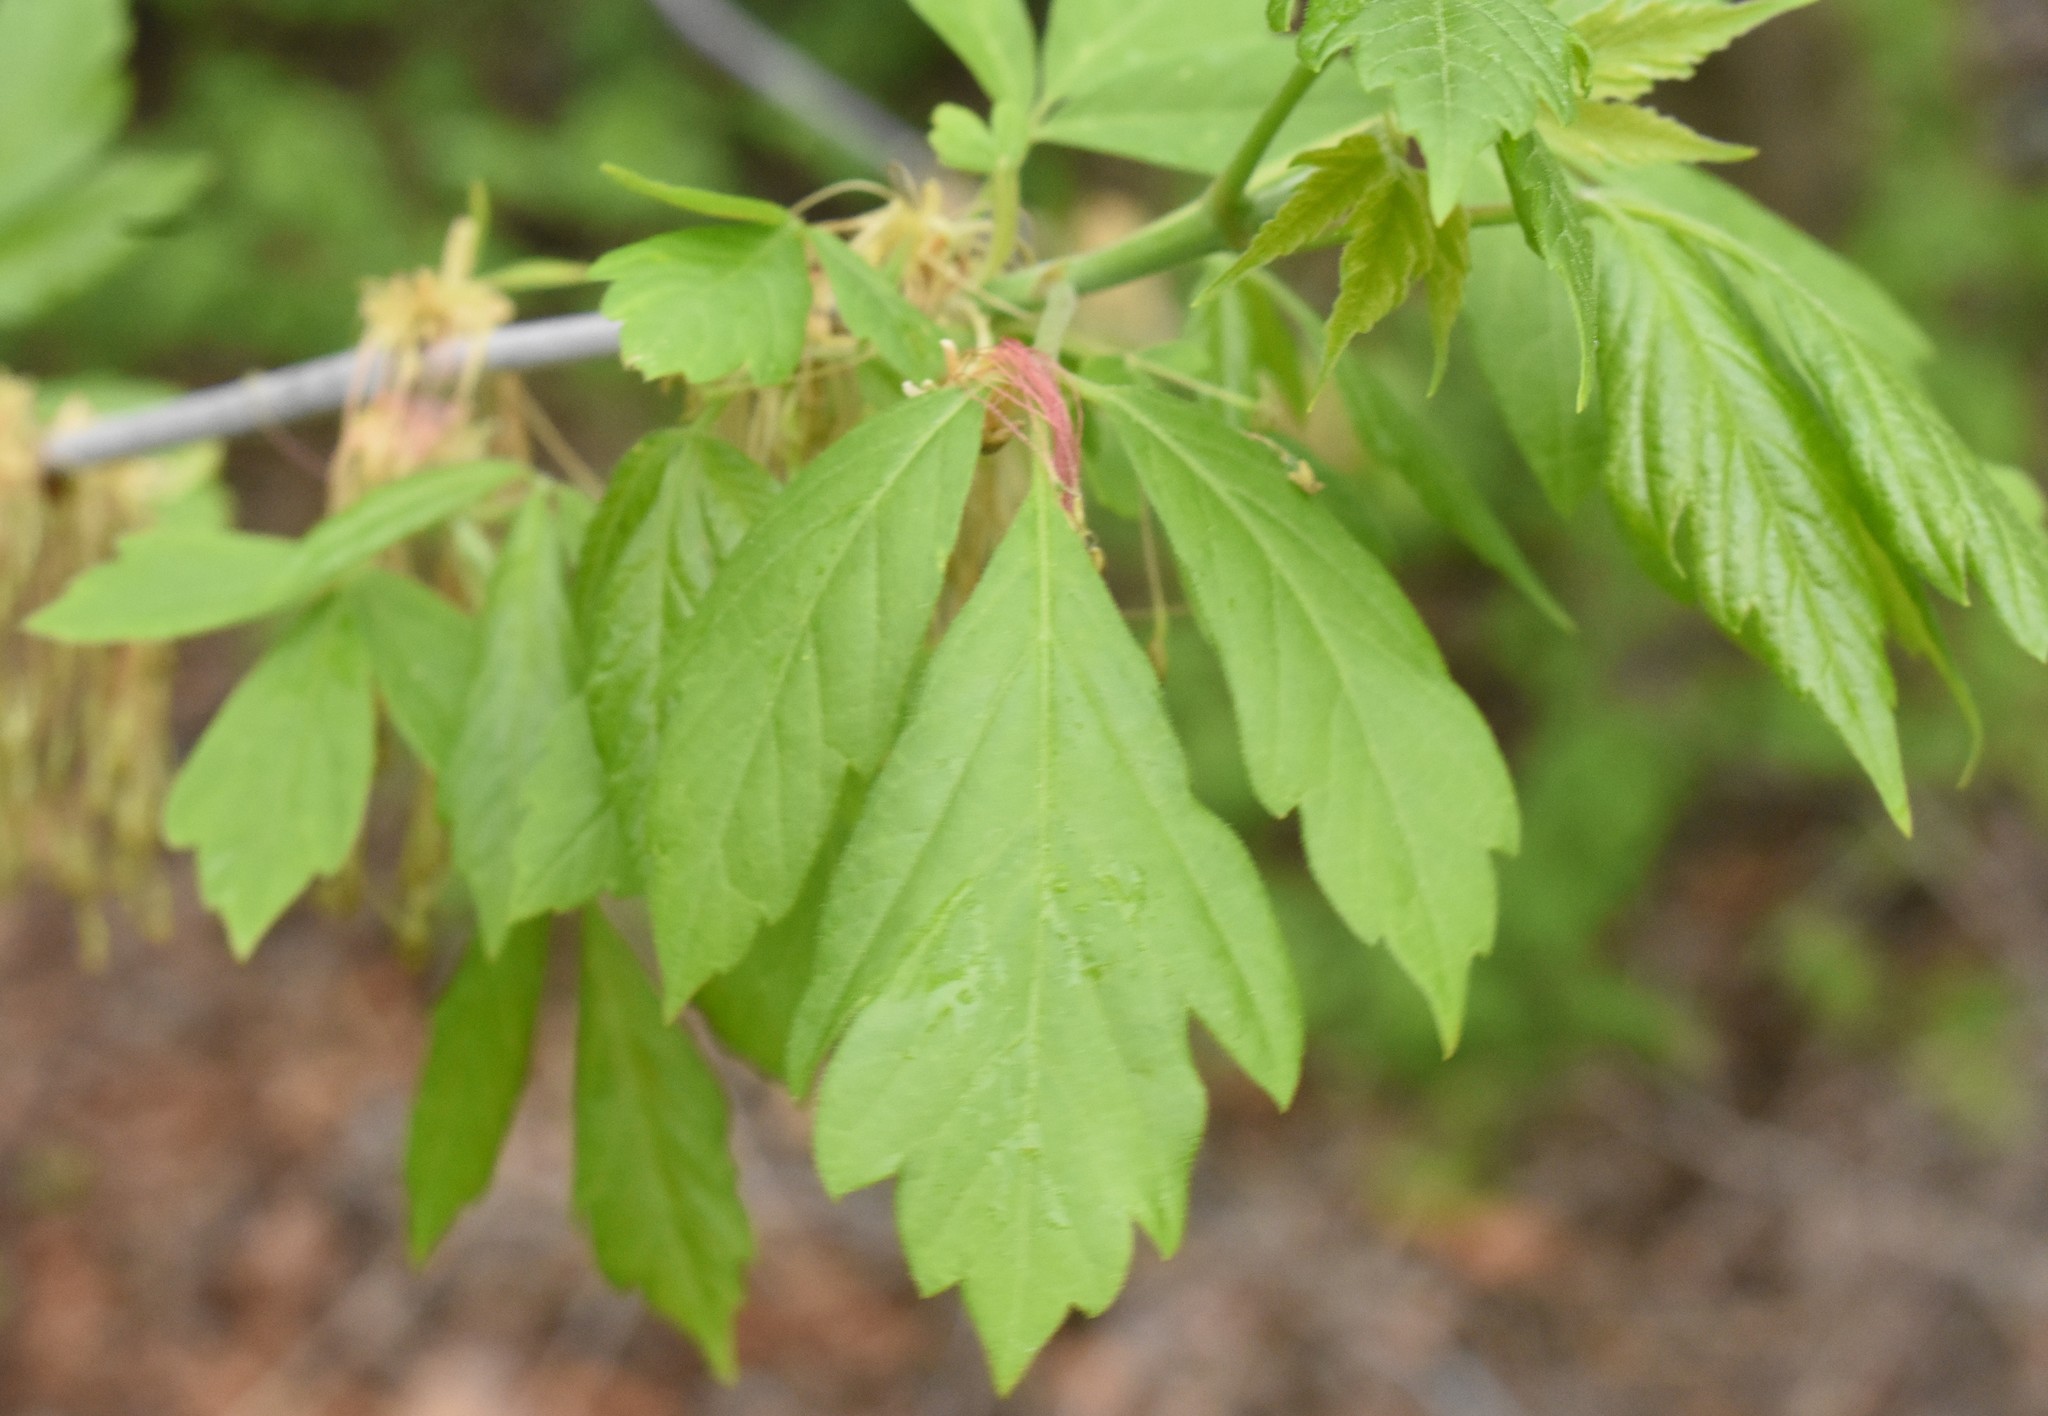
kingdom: Plantae
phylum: Tracheophyta
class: Magnoliopsida
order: Sapindales
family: Sapindaceae
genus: Acer
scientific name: Acer negundo
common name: Ashleaf maple
